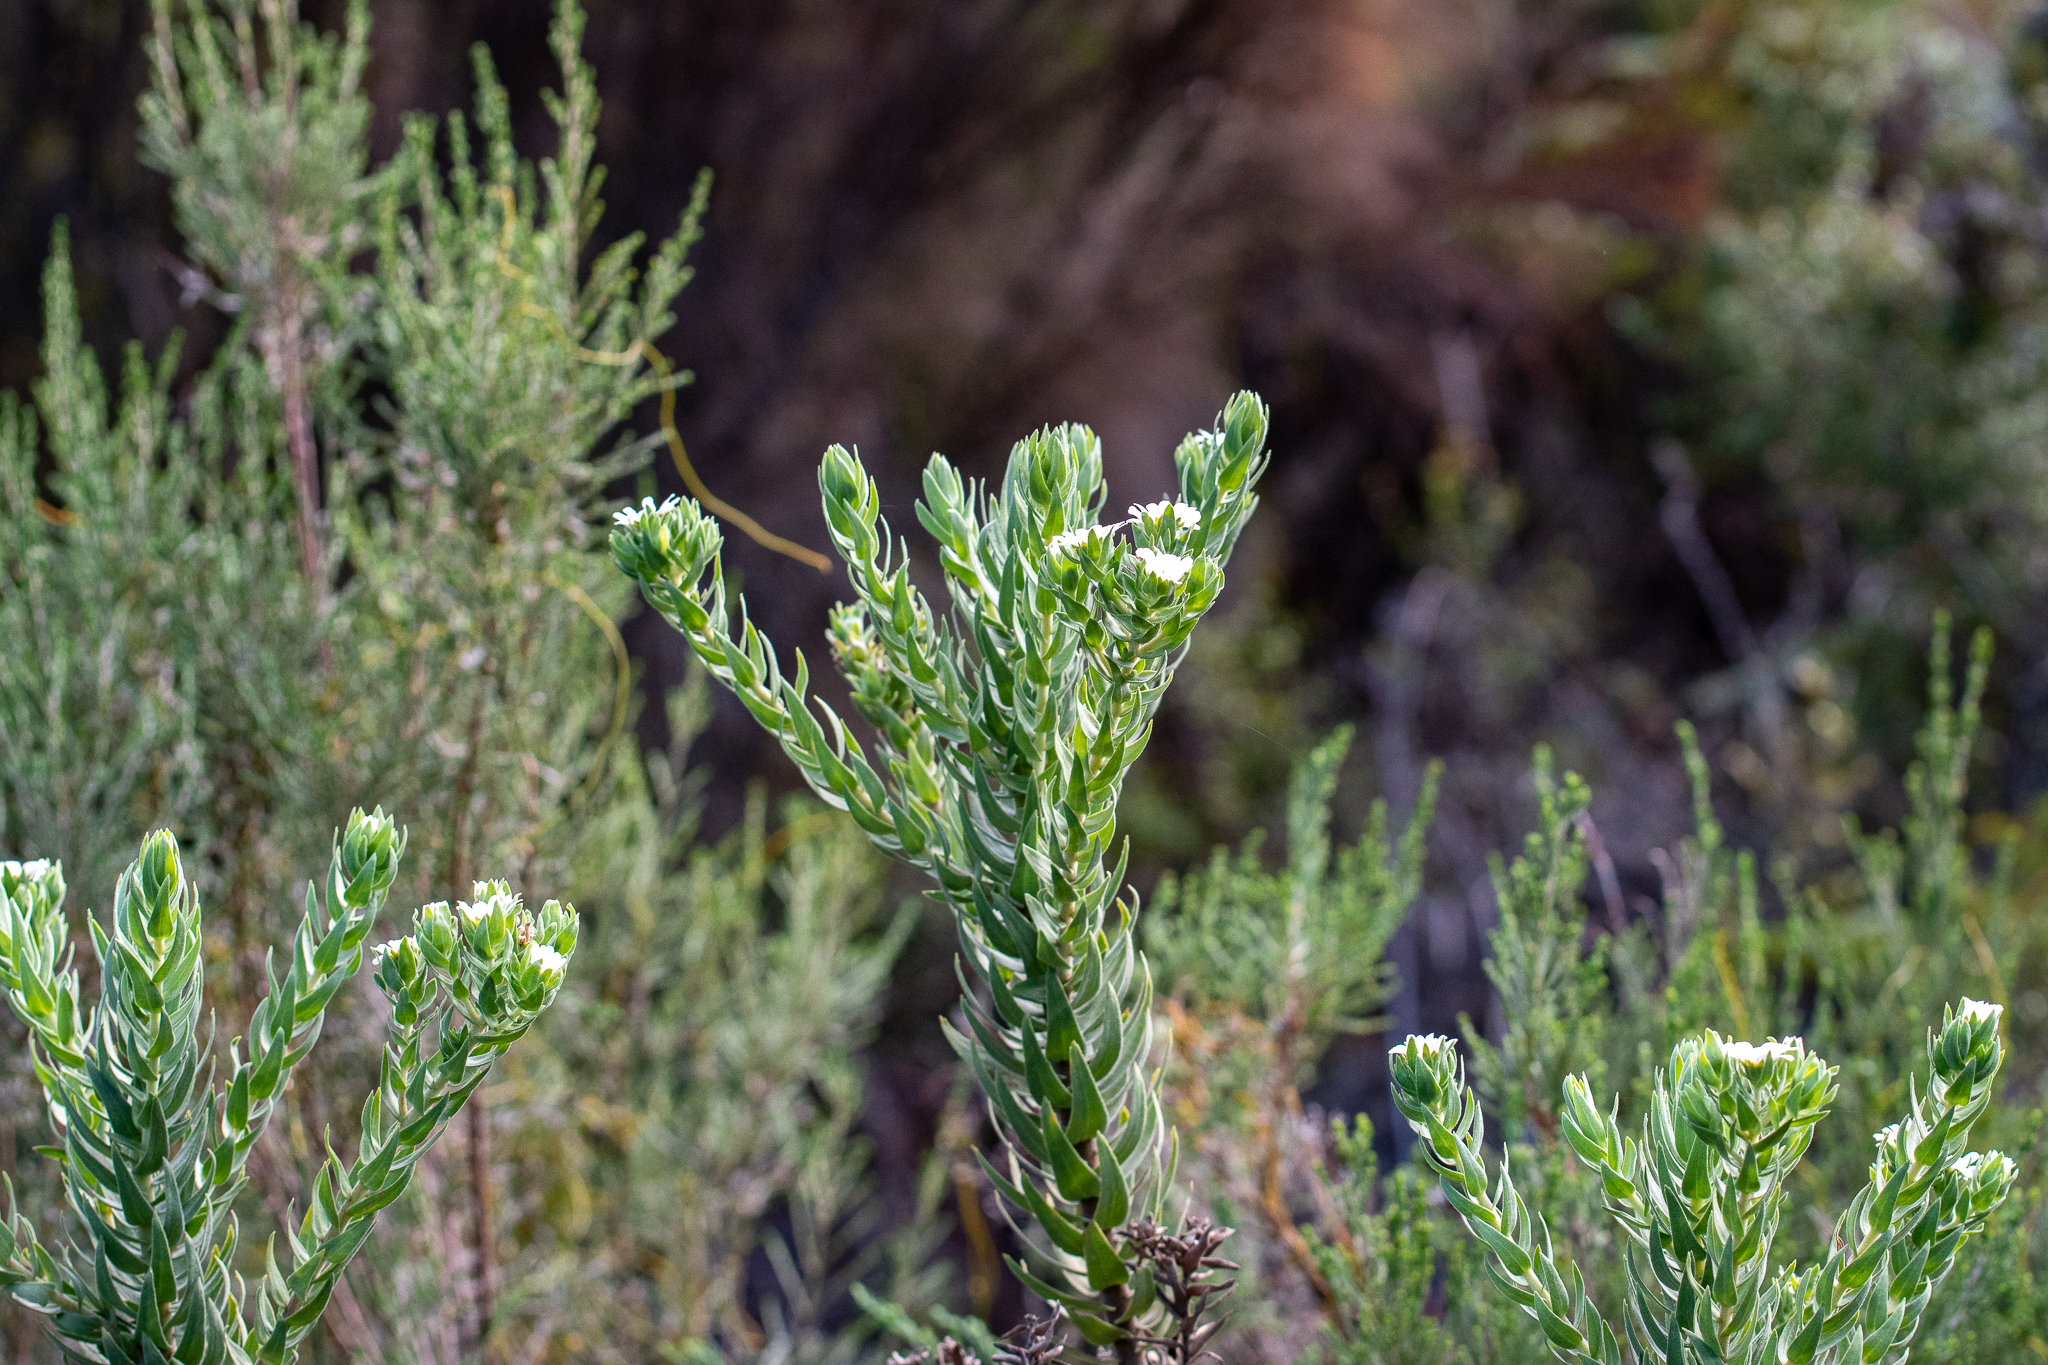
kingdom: Plantae
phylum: Tracheophyta
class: Magnoliopsida
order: Asterales
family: Asteraceae
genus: Osmitopsis
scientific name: Osmitopsis asteriscoides
